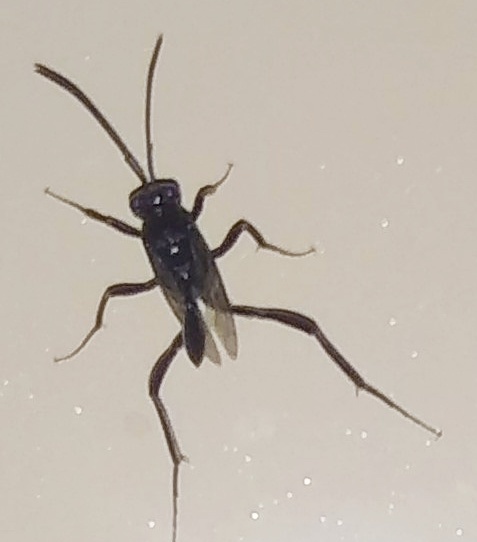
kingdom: Animalia
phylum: Arthropoda
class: Insecta
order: Hymenoptera
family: Evaniidae
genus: Evania
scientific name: Evania appendigaster
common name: Ensign wasp
